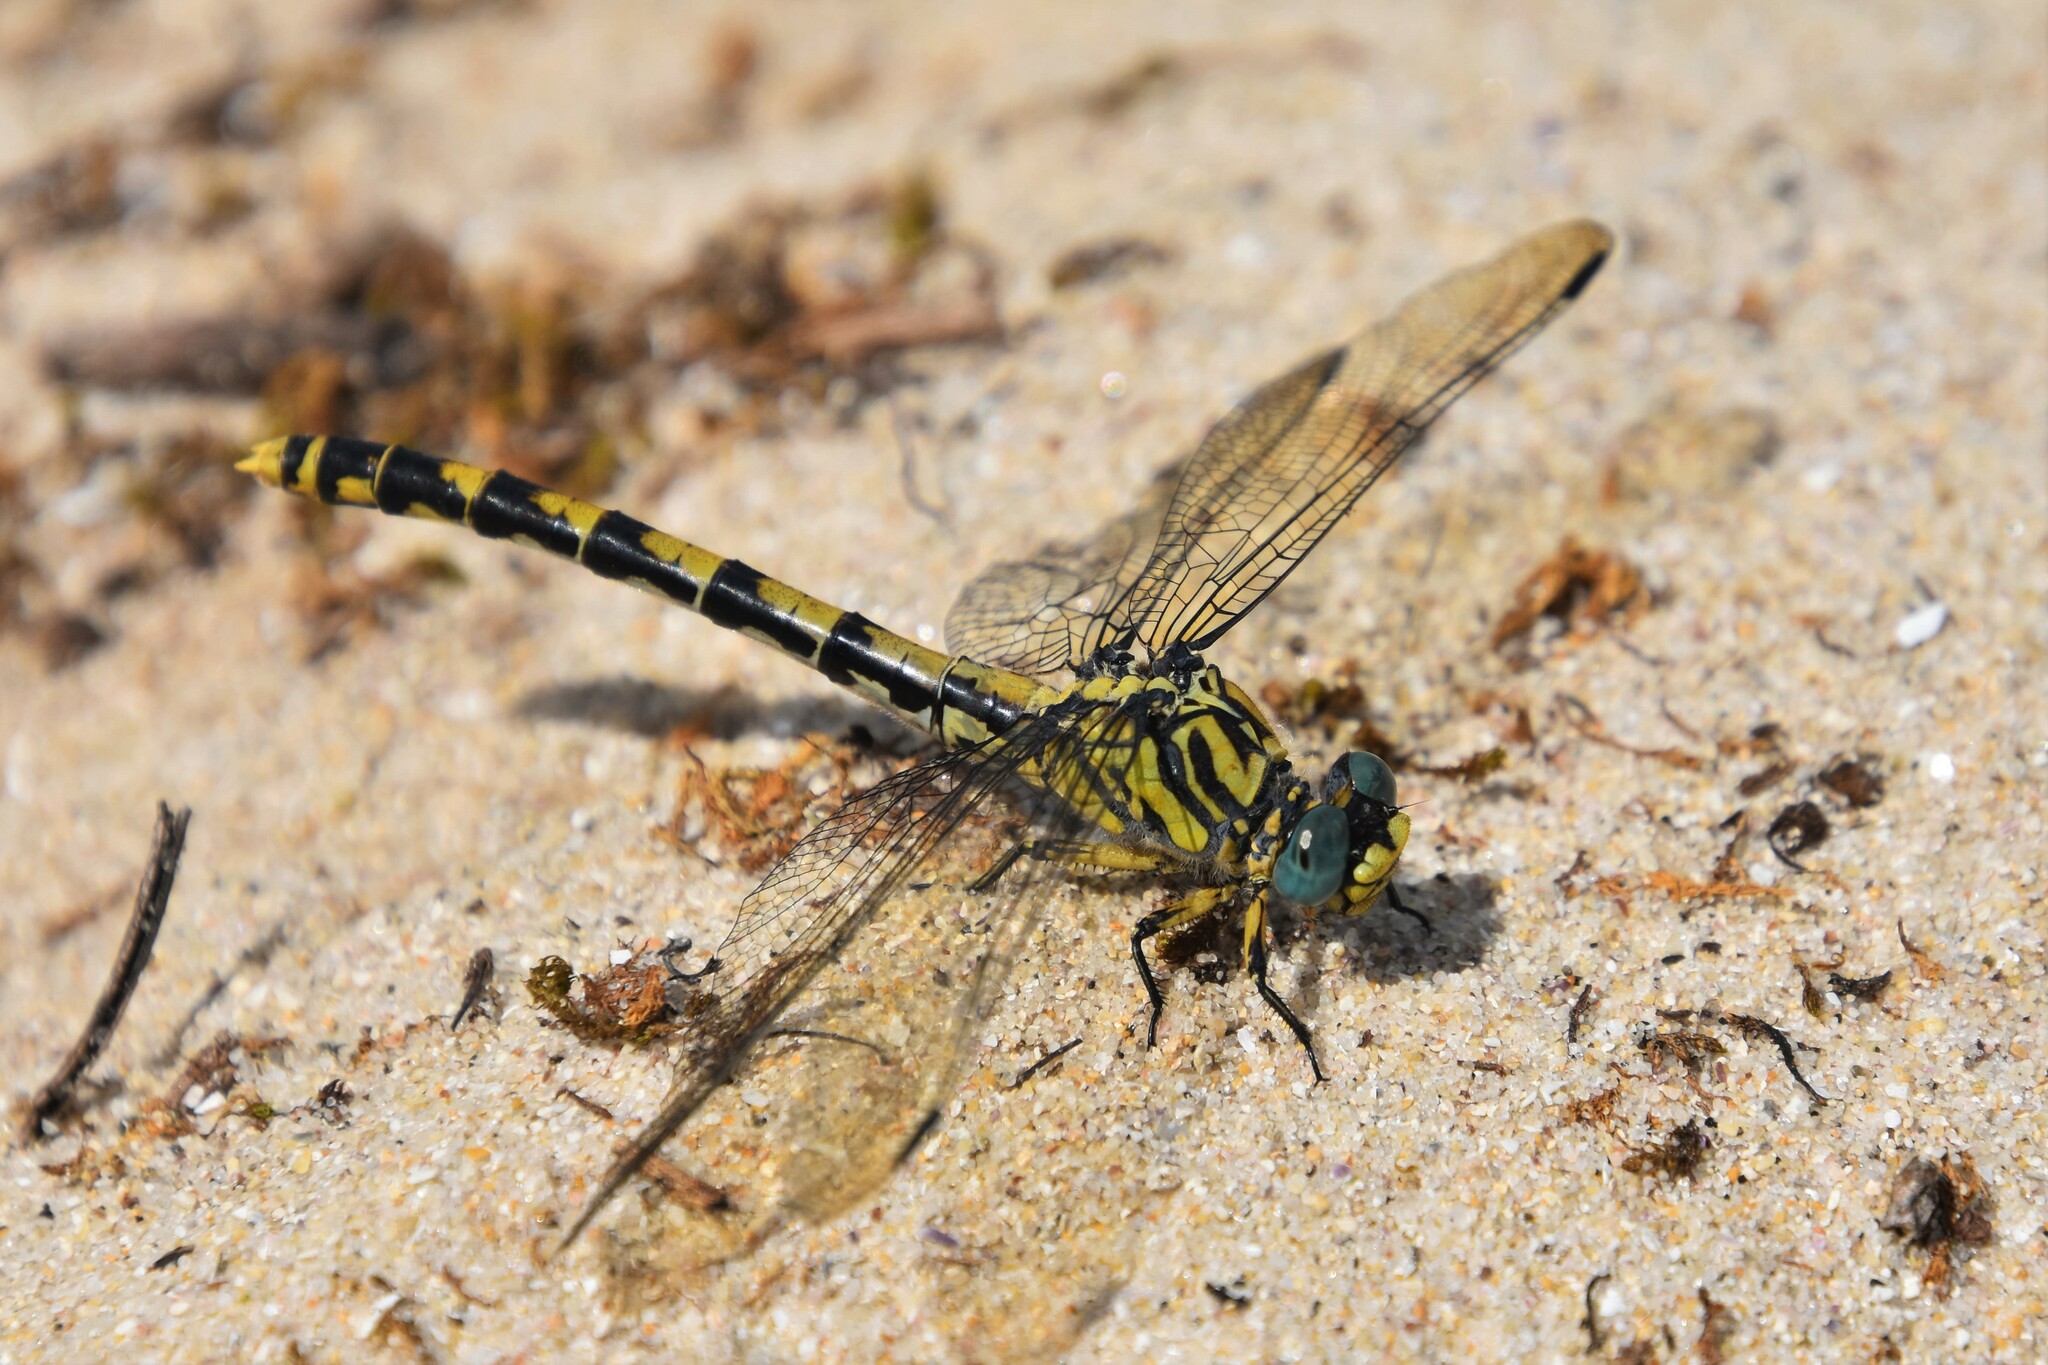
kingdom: Animalia
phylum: Arthropoda
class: Insecta
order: Odonata
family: Gomphidae
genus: Onychogomphus
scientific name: Onychogomphus uncatus
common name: Large pincertail
